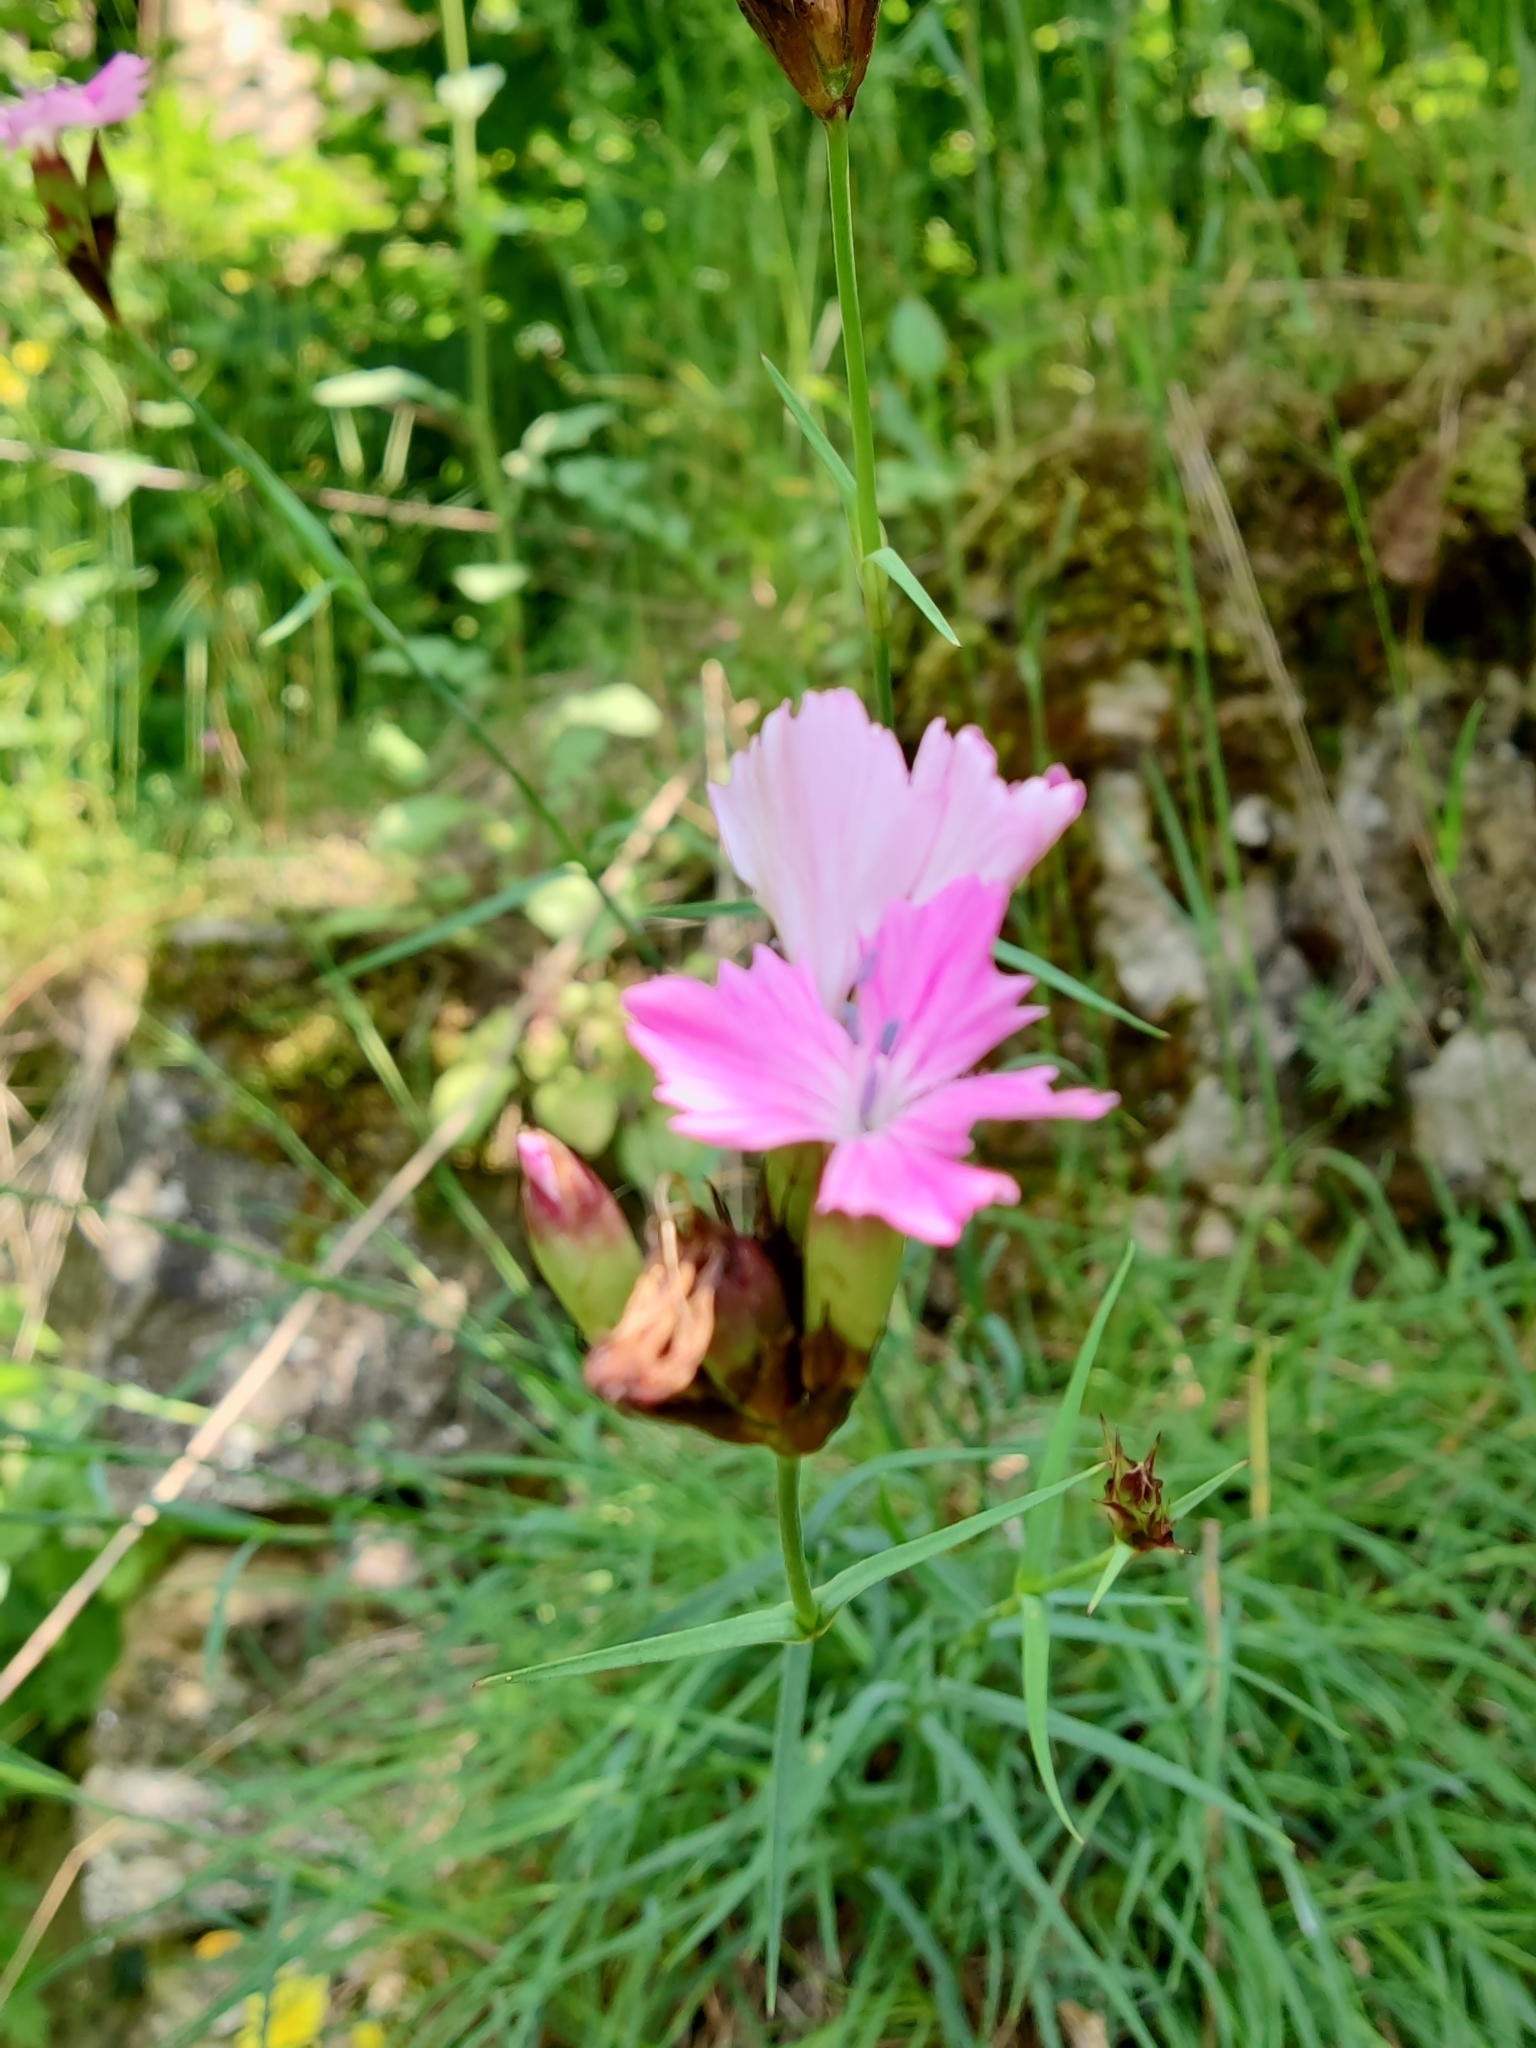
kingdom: Plantae
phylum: Tracheophyta
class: Magnoliopsida
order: Caryophyllales
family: Caryophyllaceae
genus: Dianthus
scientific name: Dianthus carthusianorum
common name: Carthusian pink
